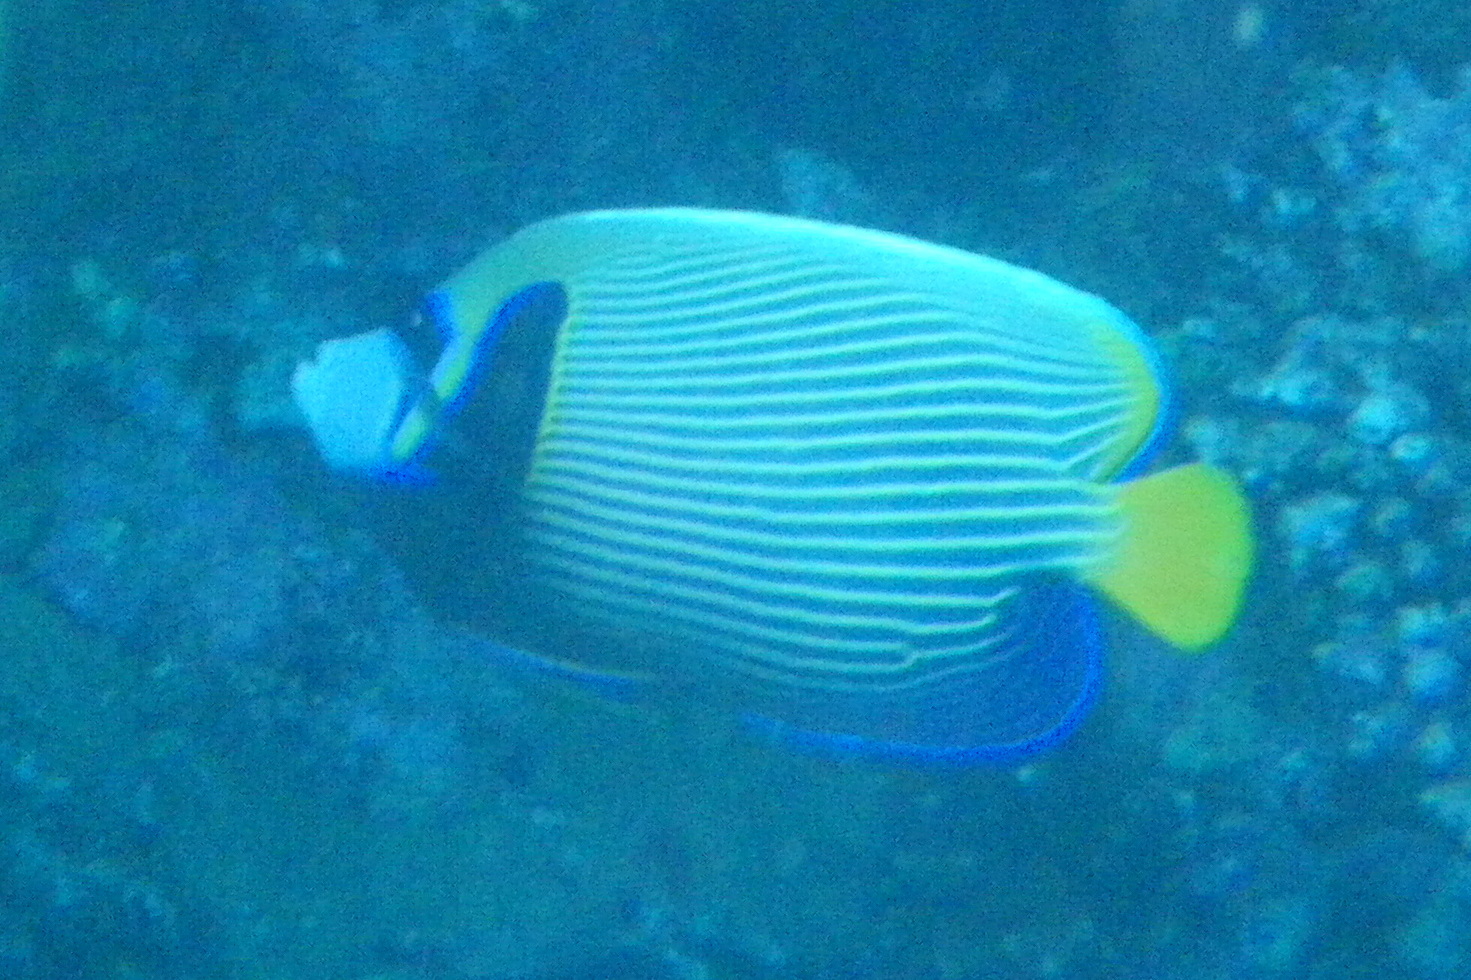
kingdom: Animalia
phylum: Chordata
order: Perciformes
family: Pomacanthidae
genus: Pomacanthus
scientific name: Pomacanthus imperator
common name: Emperor angelfish
